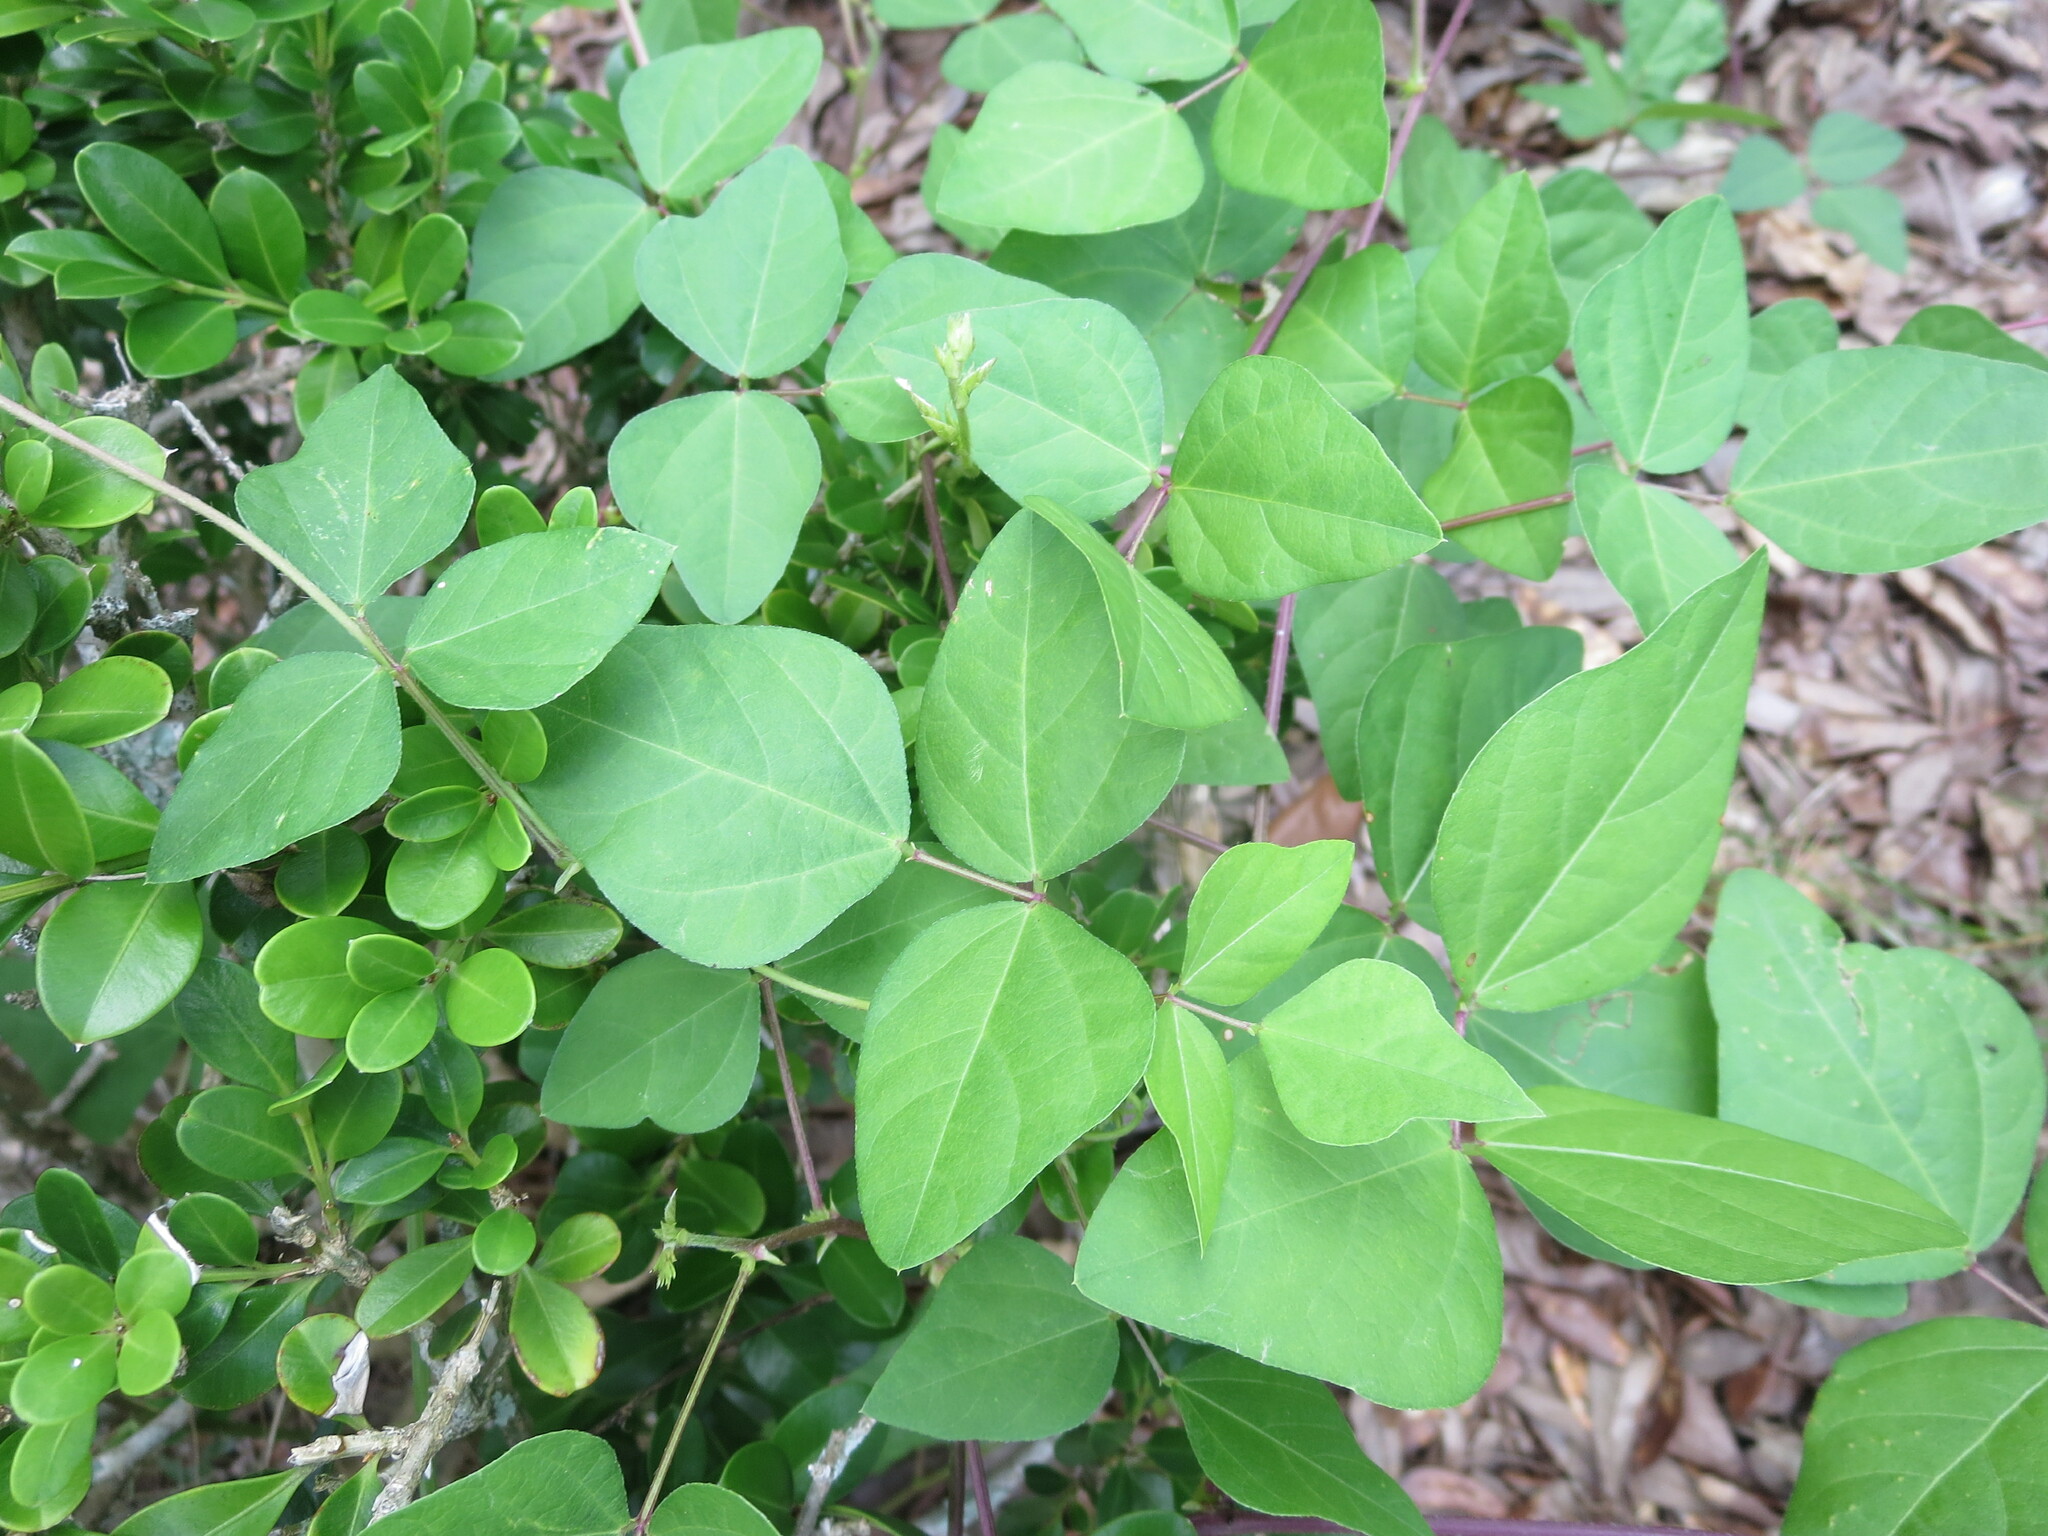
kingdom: Plantae
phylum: Tracheophyta
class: Magnoliopsida
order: Fabales
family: Fabaceae
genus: Strophostyles
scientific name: Strophostyles helvola
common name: Trailing wild bean
